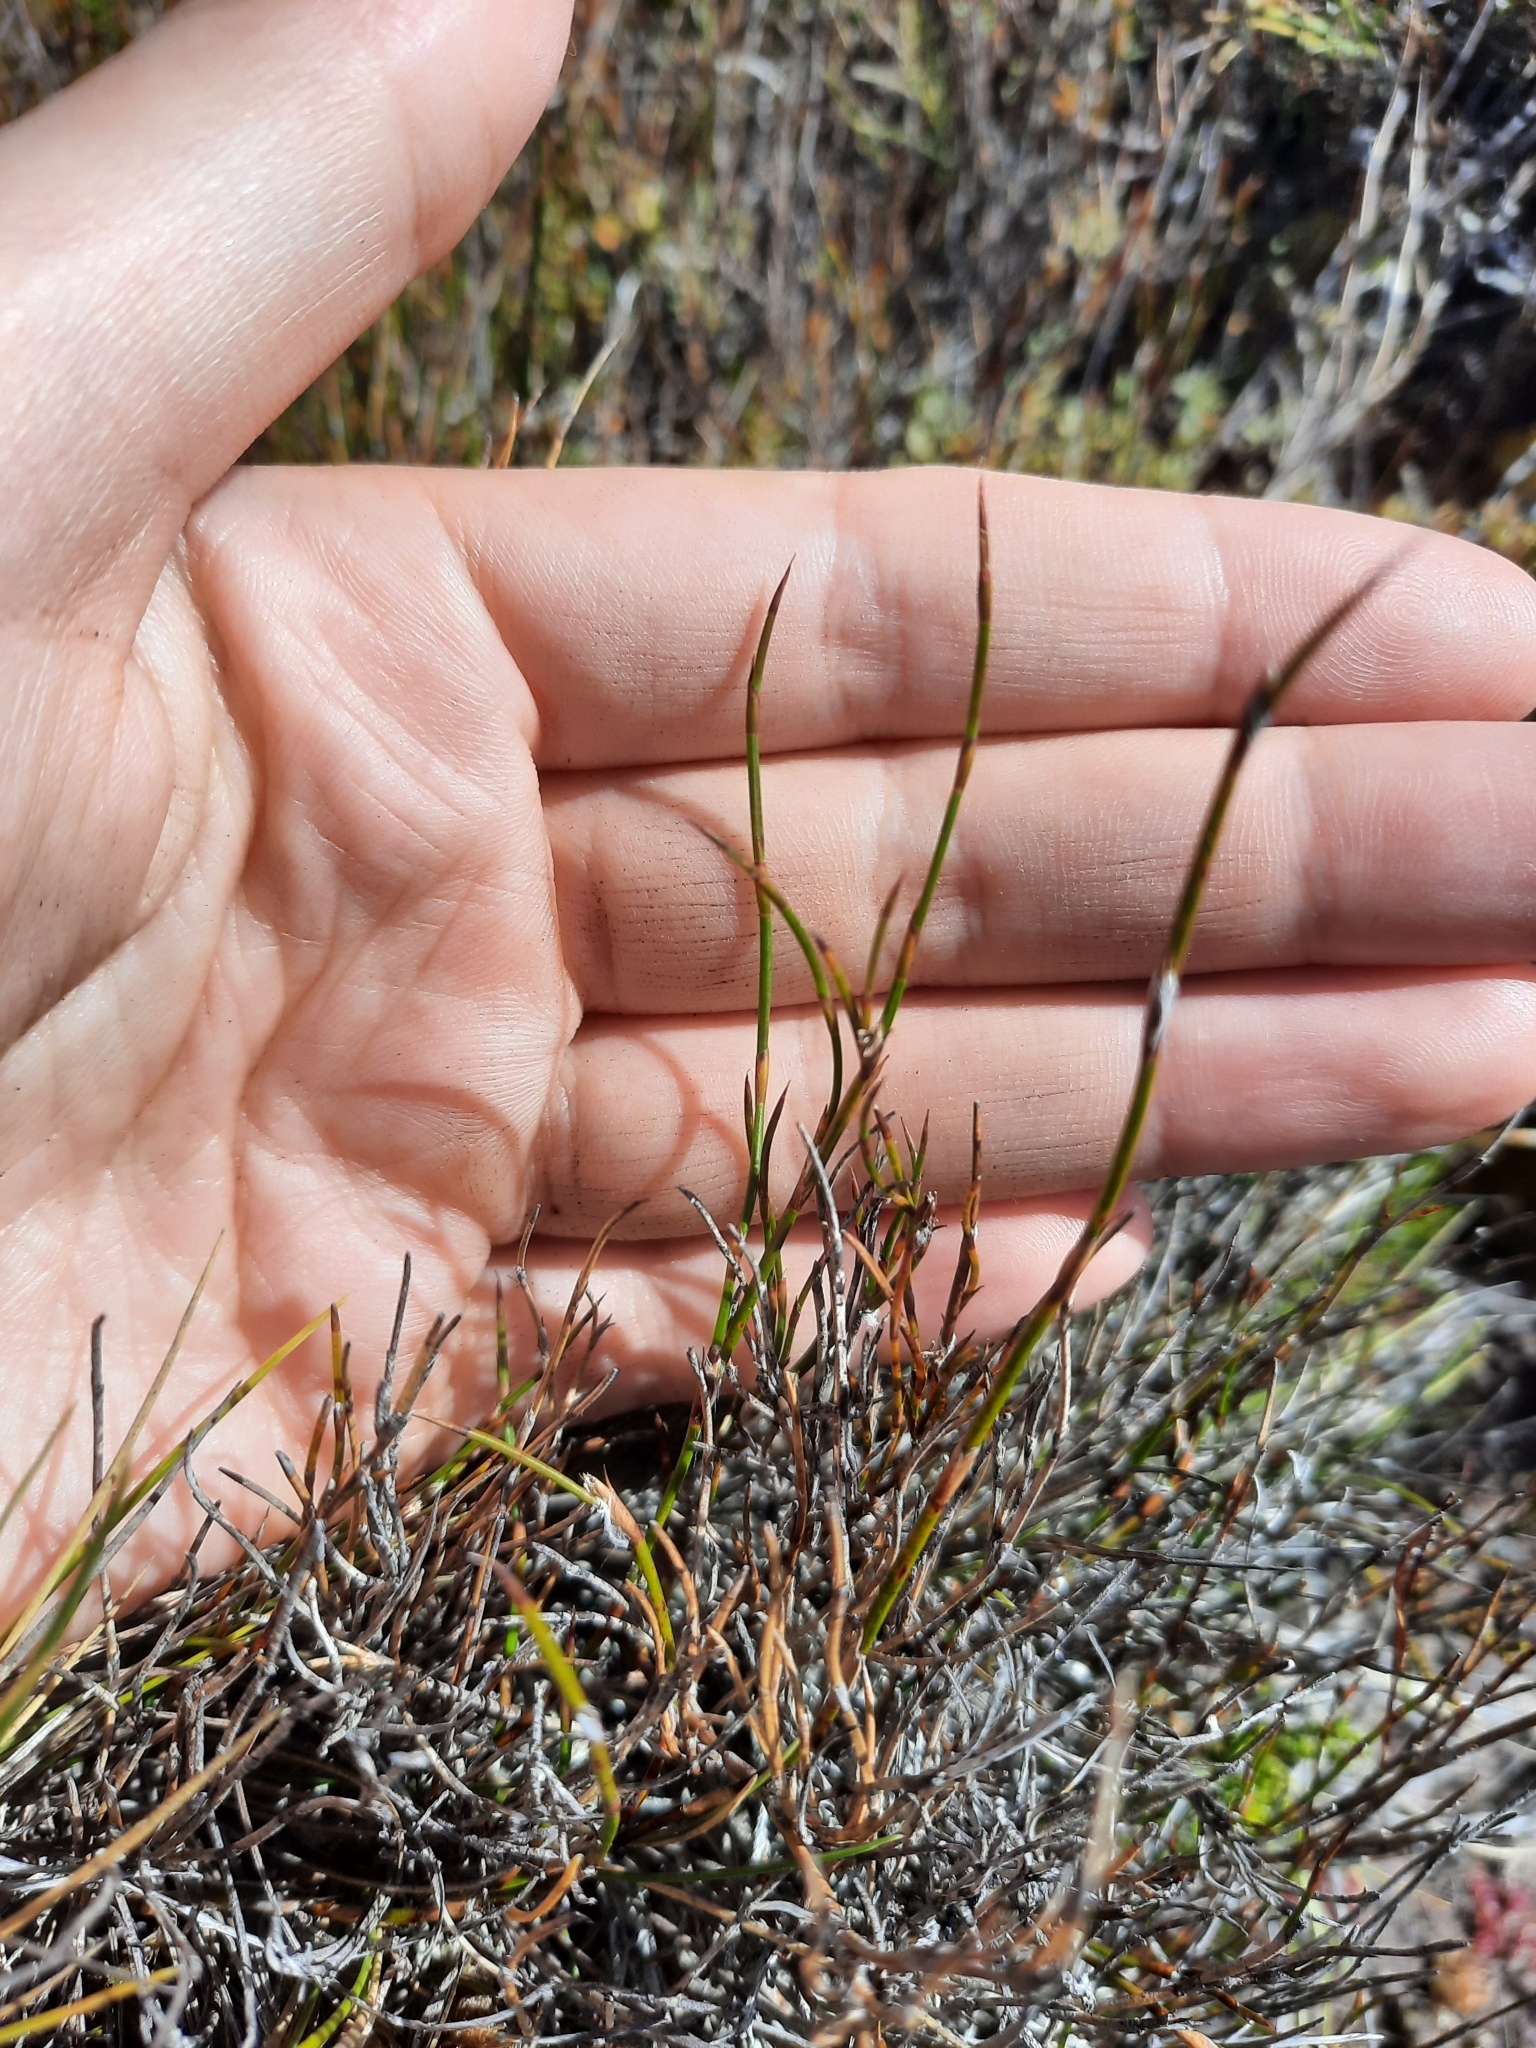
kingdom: Plantae
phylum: Tracheophyta
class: Liliopsida
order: Poales
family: Restionaceae
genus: Empodisma
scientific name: Empodisma minus
